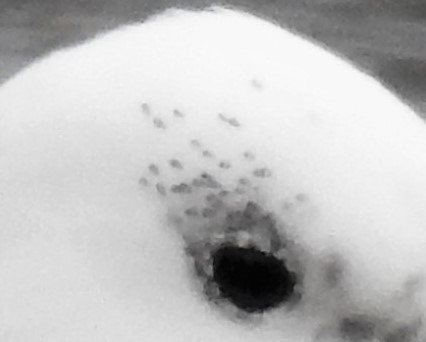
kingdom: Animalia
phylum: Arthropoda
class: Insecta
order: Psocodea
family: Philopteridae
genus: Saemundssonia
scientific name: Saemundssonia lari
